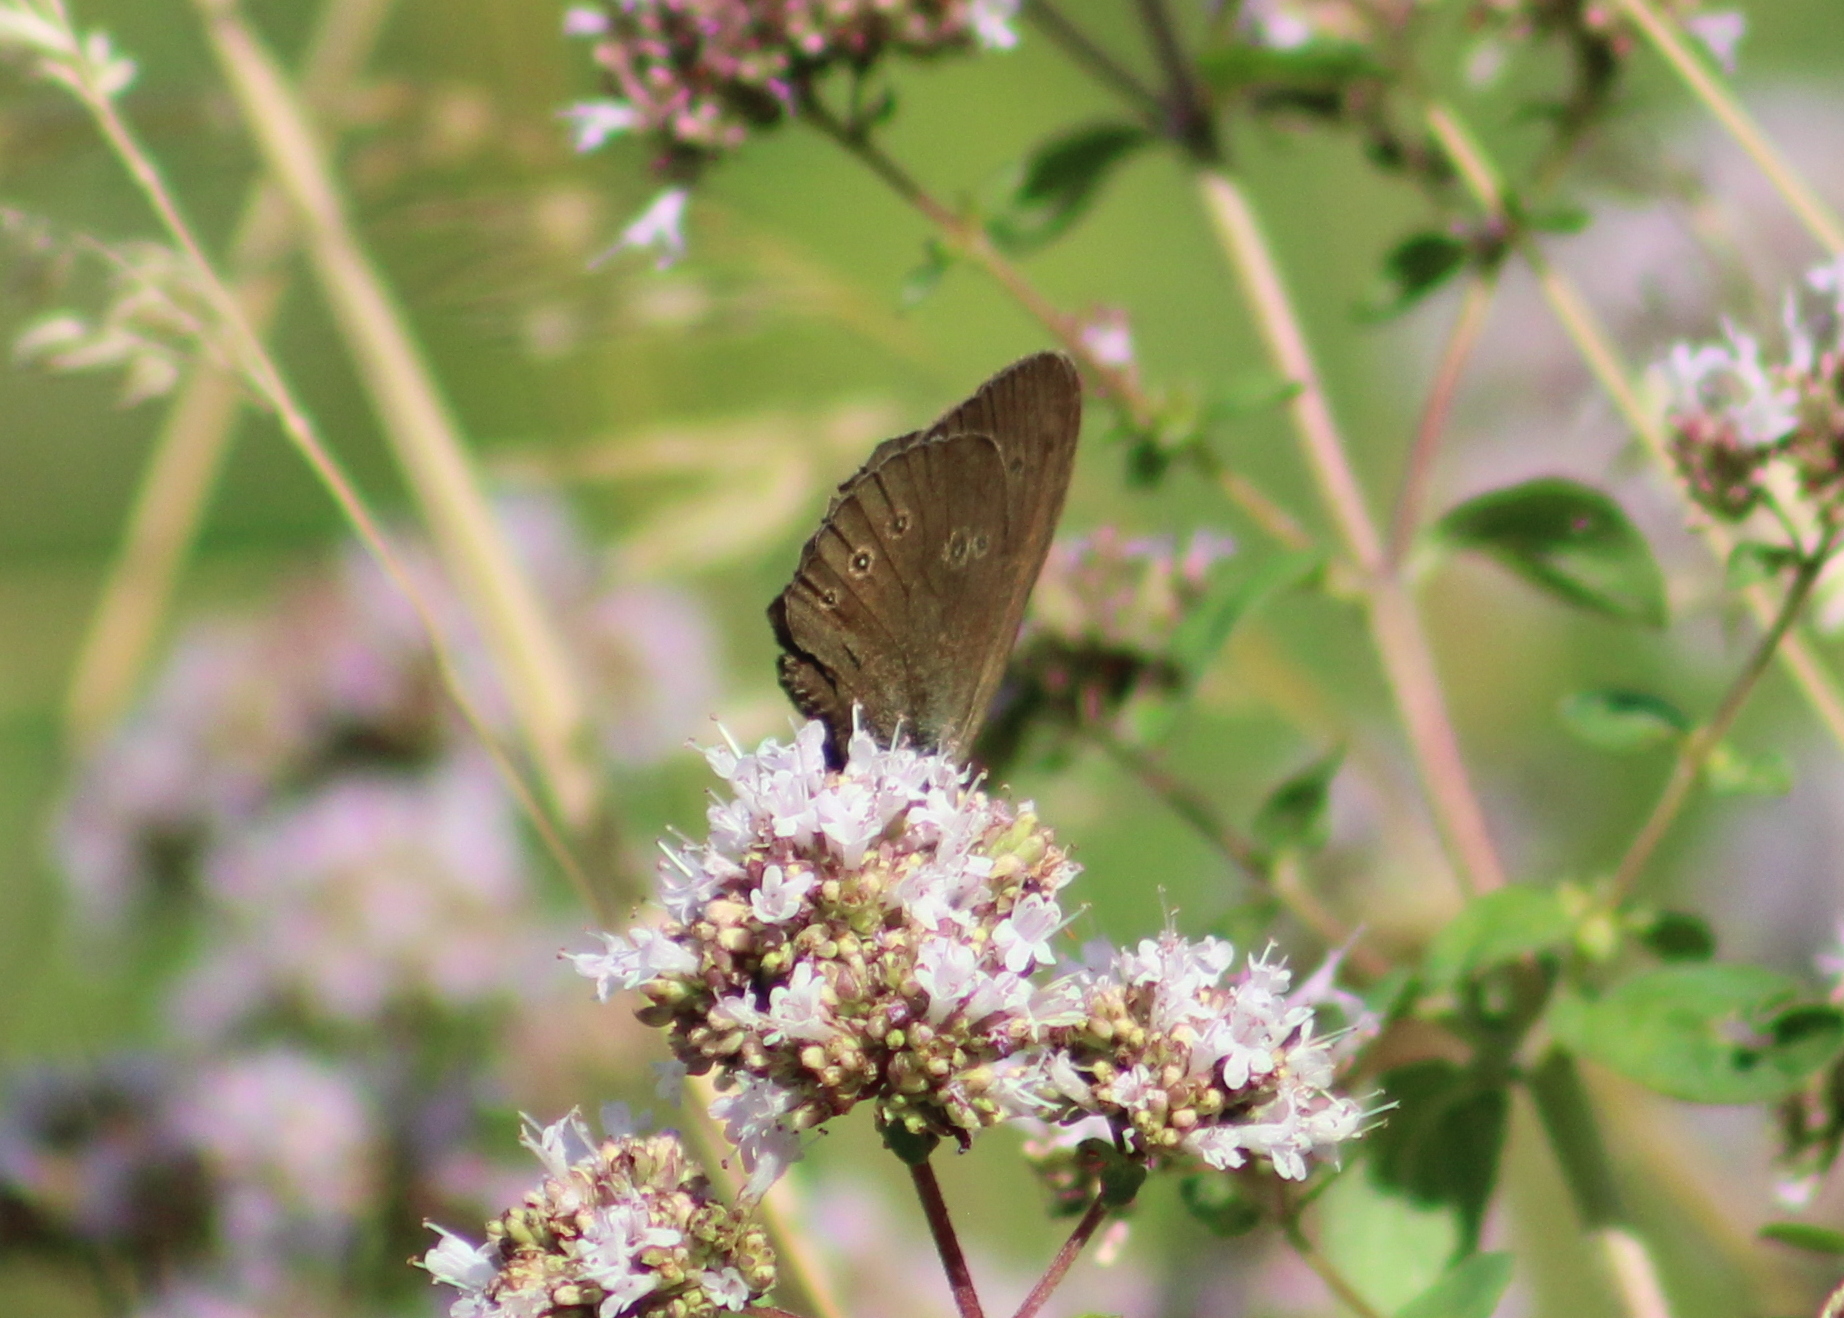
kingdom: Animalia
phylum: Arthropoda
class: Insecta
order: Lepidoptera
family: Nymphalidae
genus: Aphantopus
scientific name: Aphantopus hyperantus
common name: Ringlet
